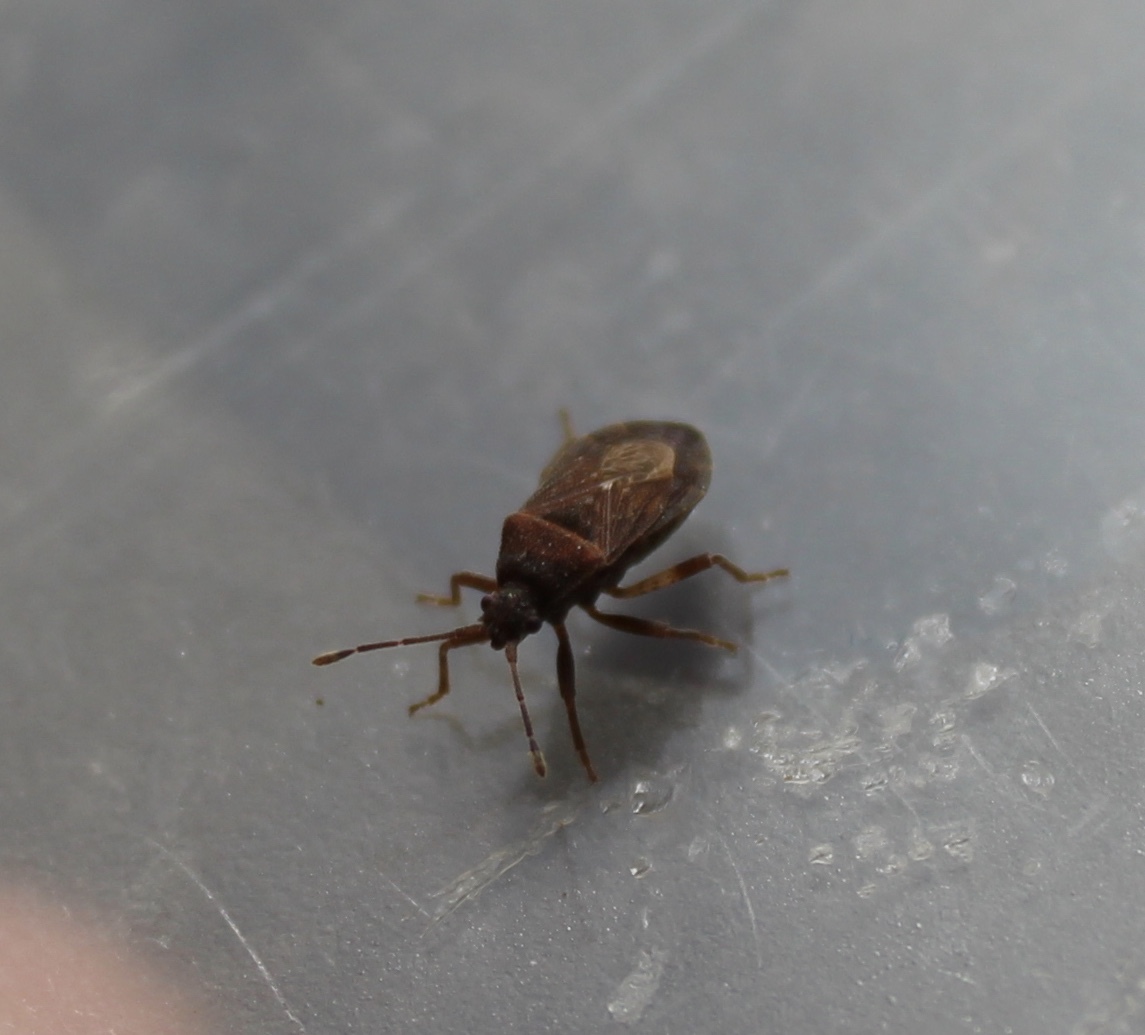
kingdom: Animalia
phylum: Arthropoda
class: Insecta
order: Hemiptera
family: Coreidae
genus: Acantholybas
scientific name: Acantholybas brunneus
